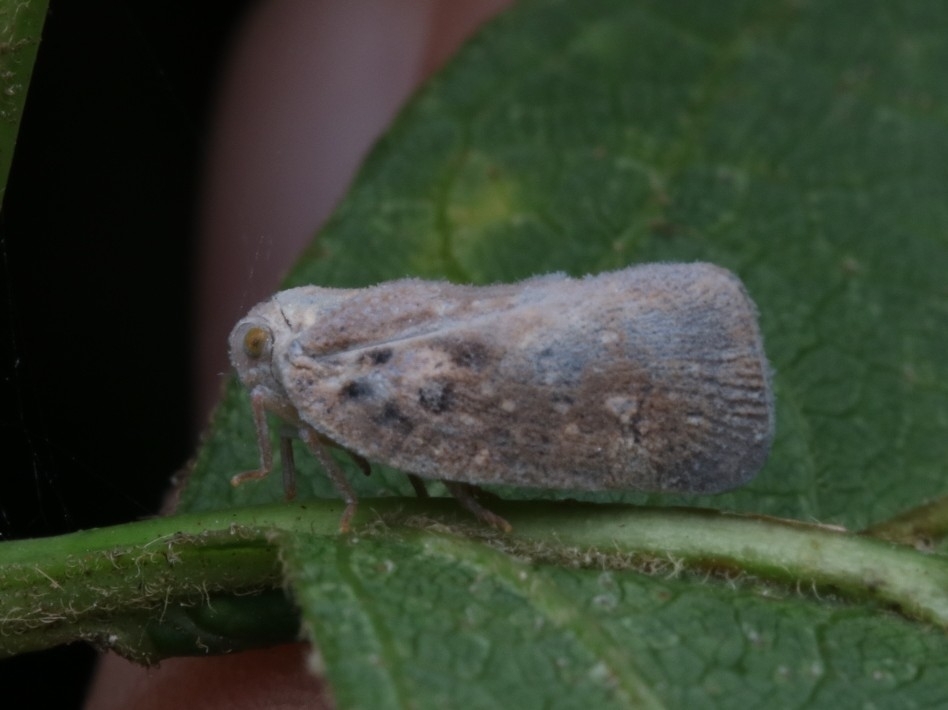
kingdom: Animalia
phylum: Arthropoda
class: Insecta
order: Hemiptera
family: Flatidae
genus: Metcalfa
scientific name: Metcalfa pruinosa
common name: Citrus flatid planthopper
